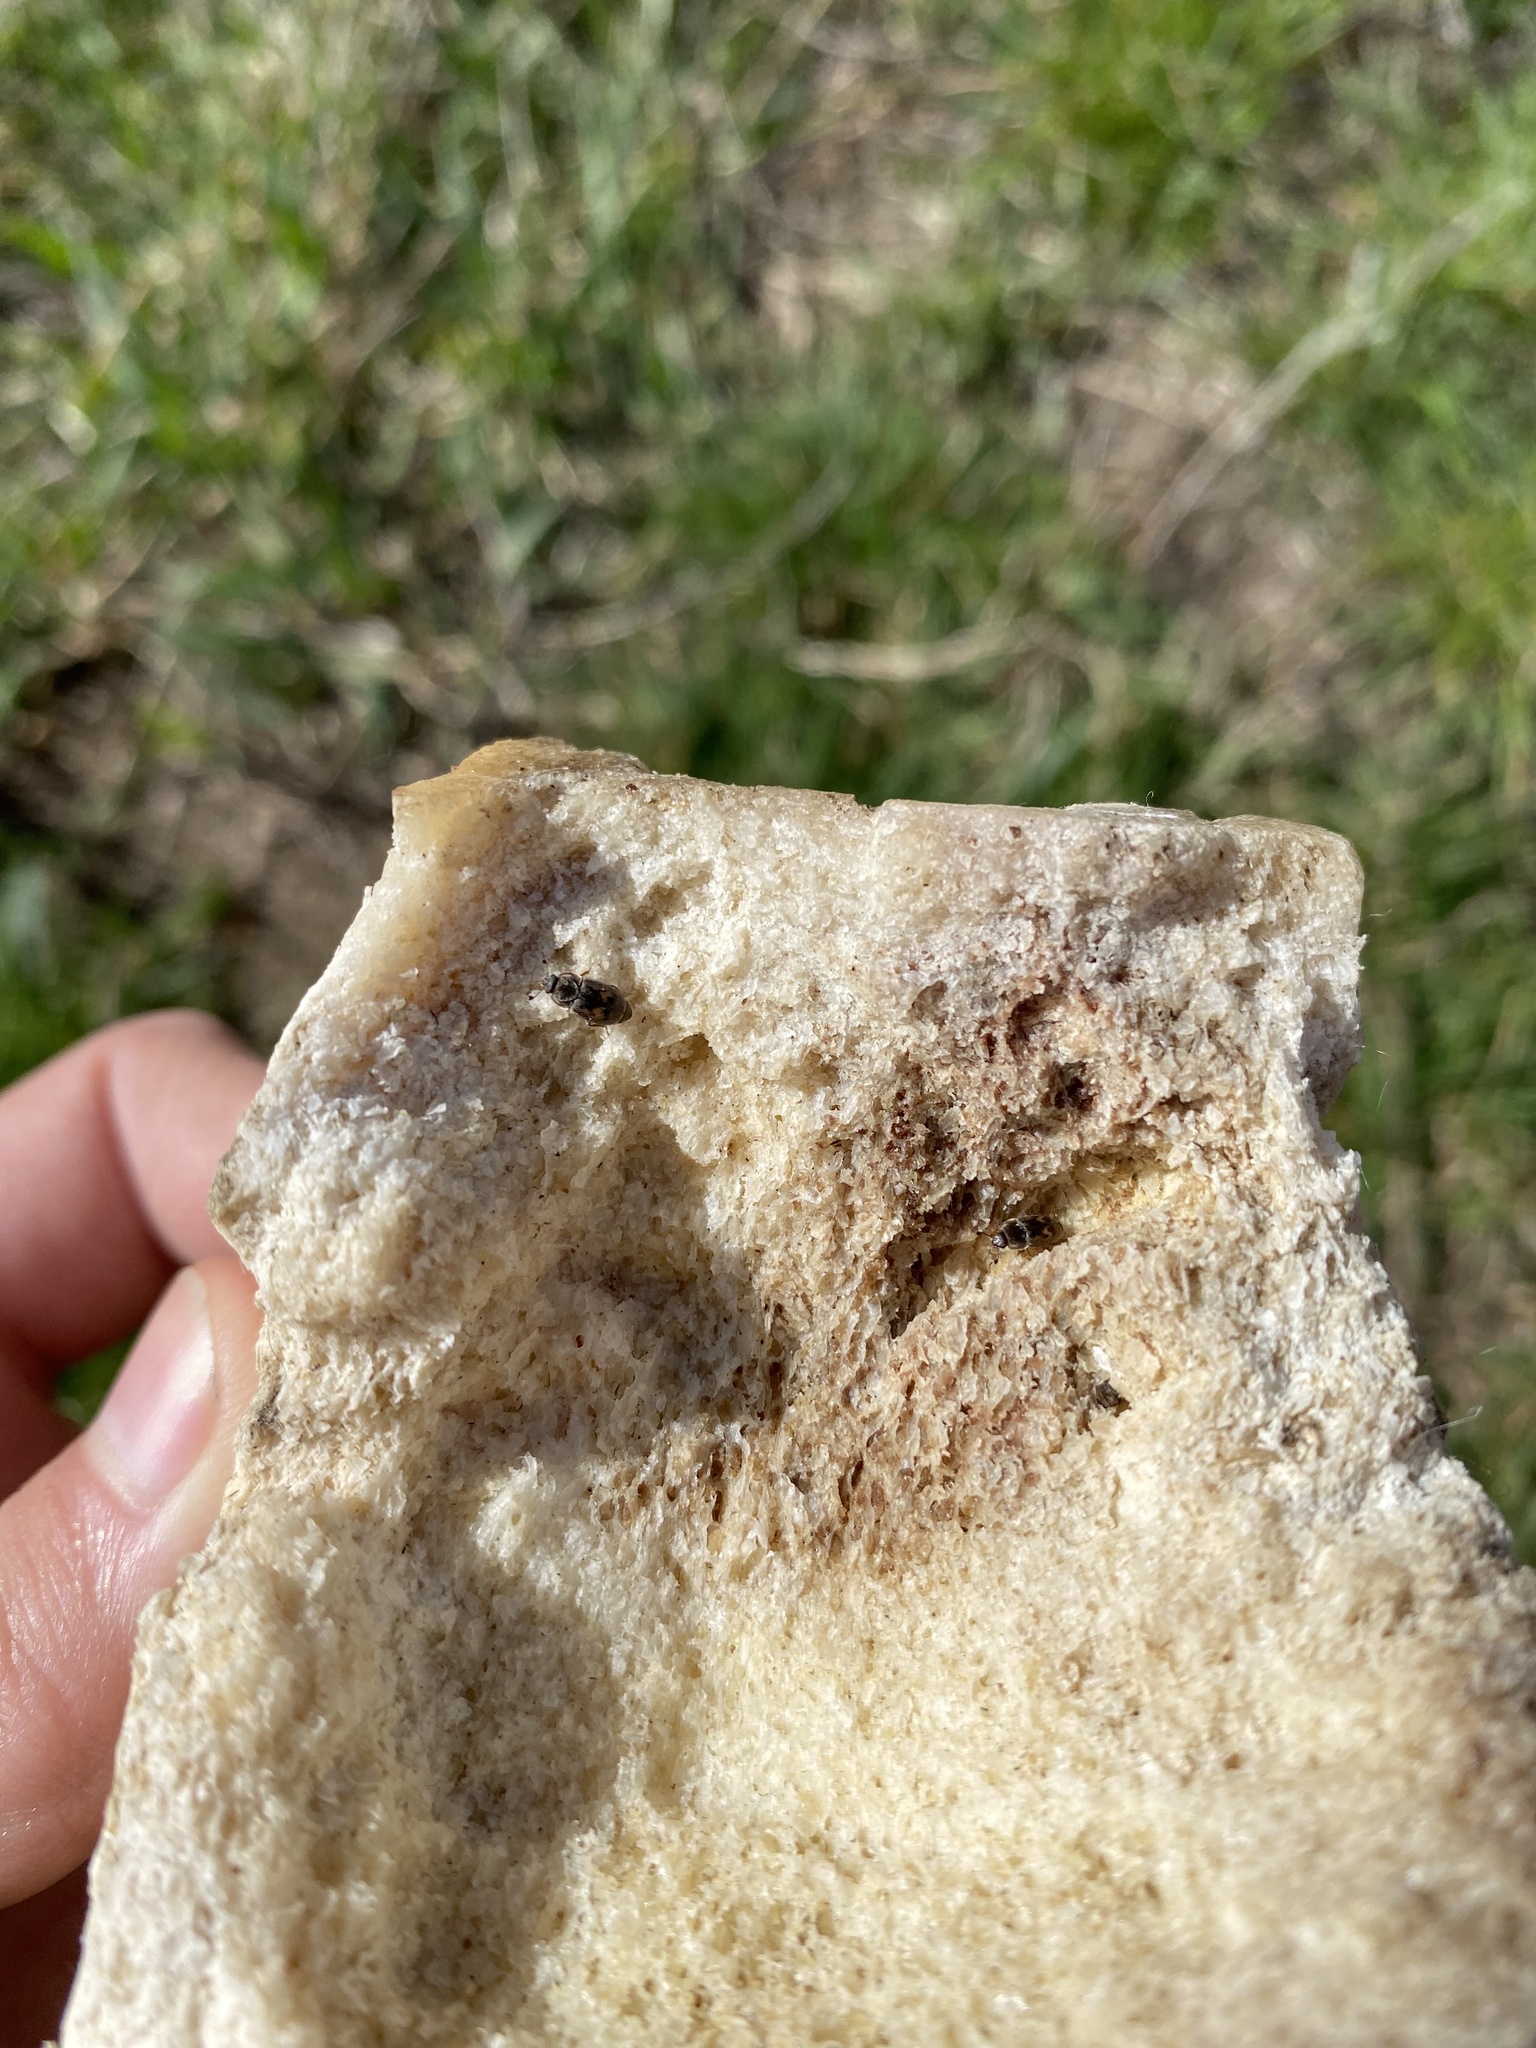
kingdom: Animalia
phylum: Arthropoda
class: Insecta
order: Coleoptera
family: Nitidulidae
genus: Nitidula
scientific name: Nitidula ziczac
